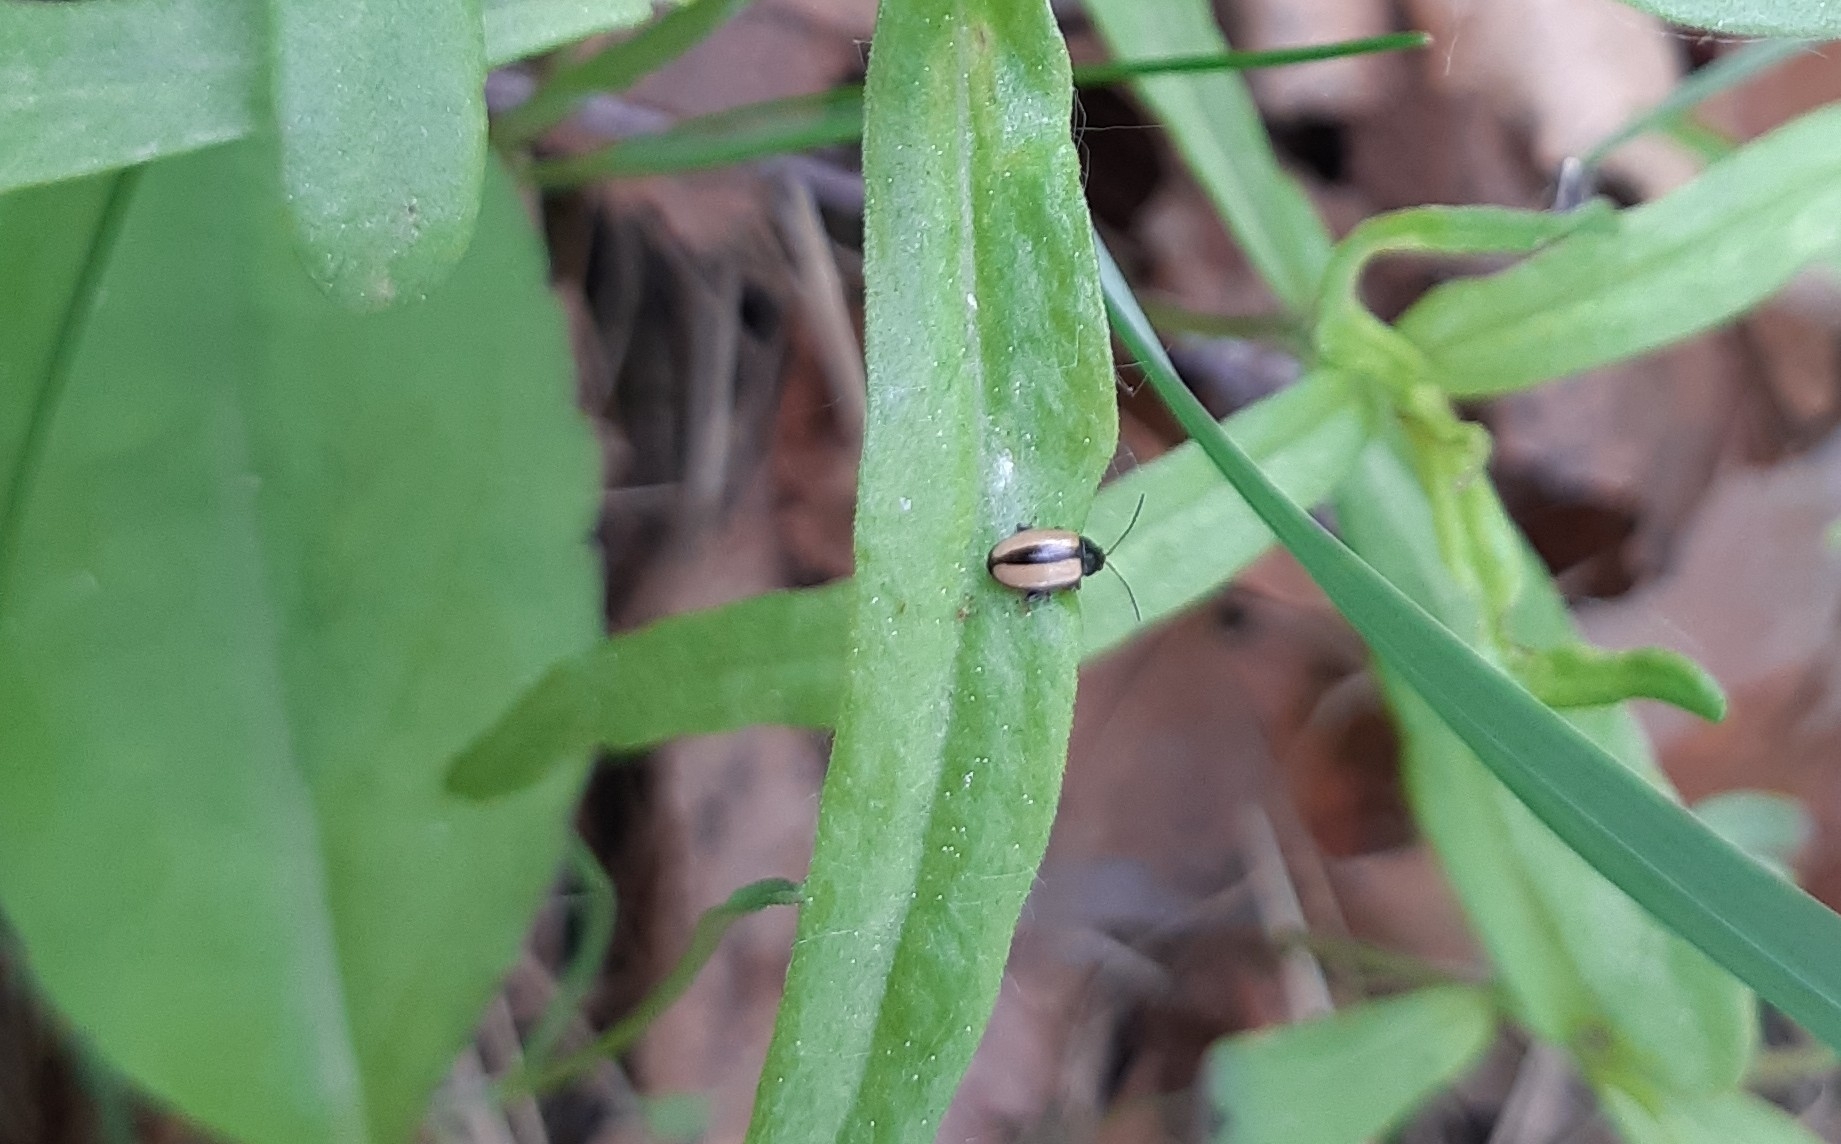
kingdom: Animalia
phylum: Arthropoda
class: Insecta
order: Coleoptera
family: Chrysomelidae
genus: Phyllotreta
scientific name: Phyllotreta armoraciae
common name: Horseradish flea beetle
